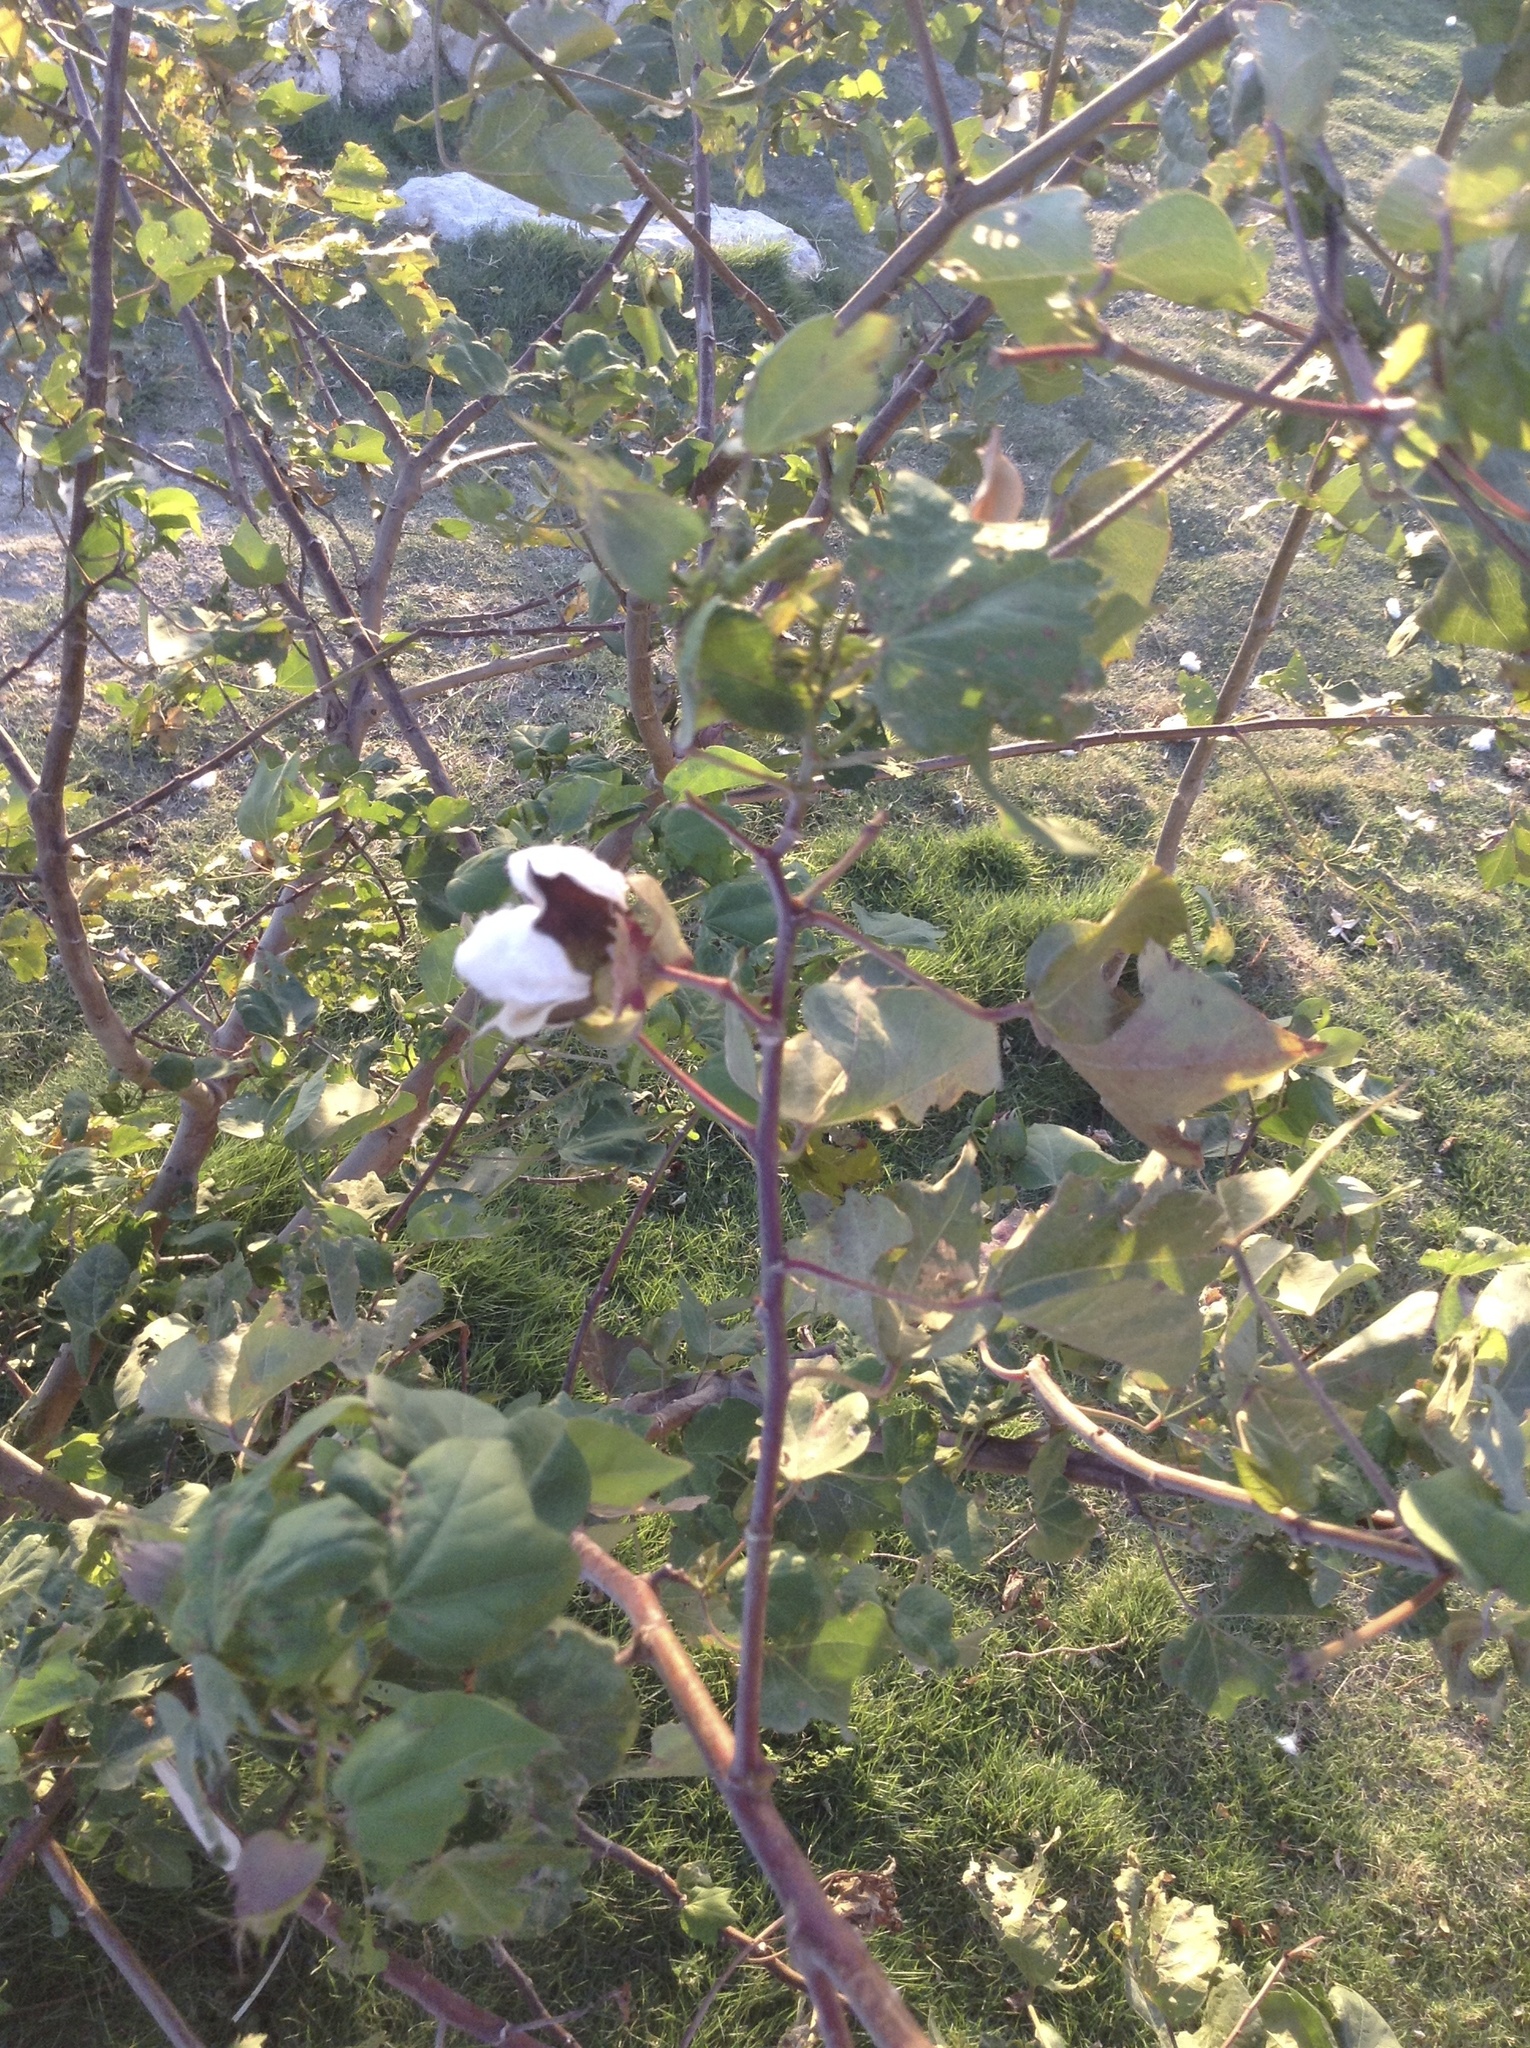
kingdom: Plantae
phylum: Tracheophyta
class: Magnoliopsida
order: Malvales
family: Malvaceae
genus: Gossypium
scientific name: Gossypium hirsutum
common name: Cotton
